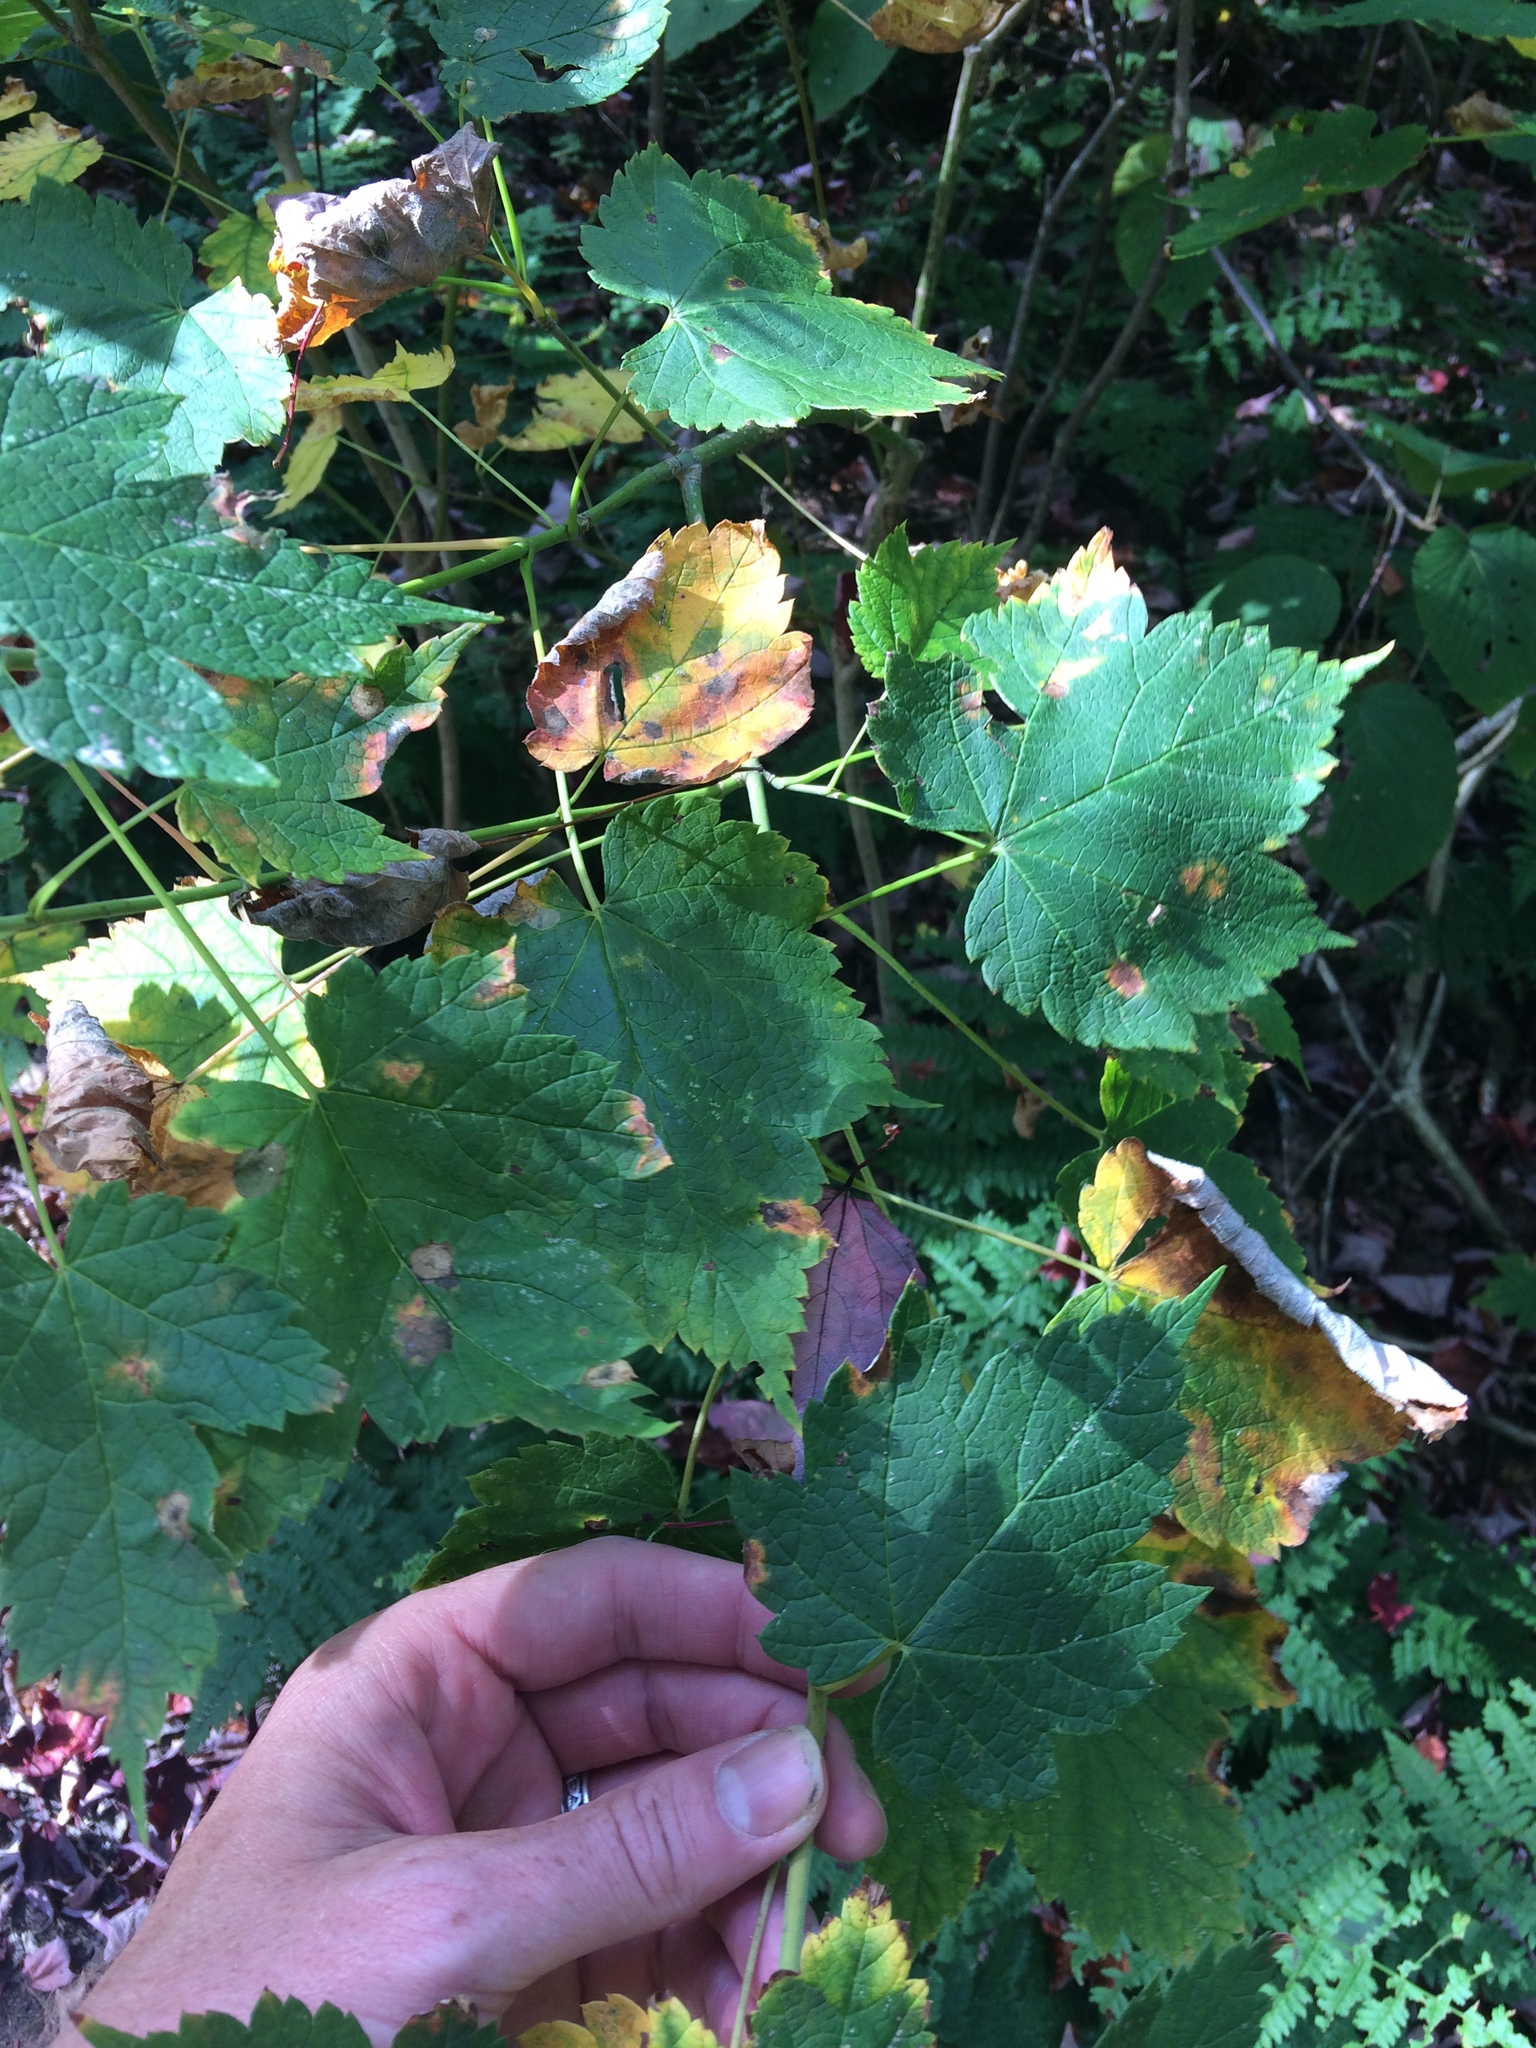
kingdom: Plantae
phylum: Tracheophyta
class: Magnoliopsida
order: Sapindales
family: Sapindaceae
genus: Acer
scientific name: Acer spicatum
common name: Mountain maple
